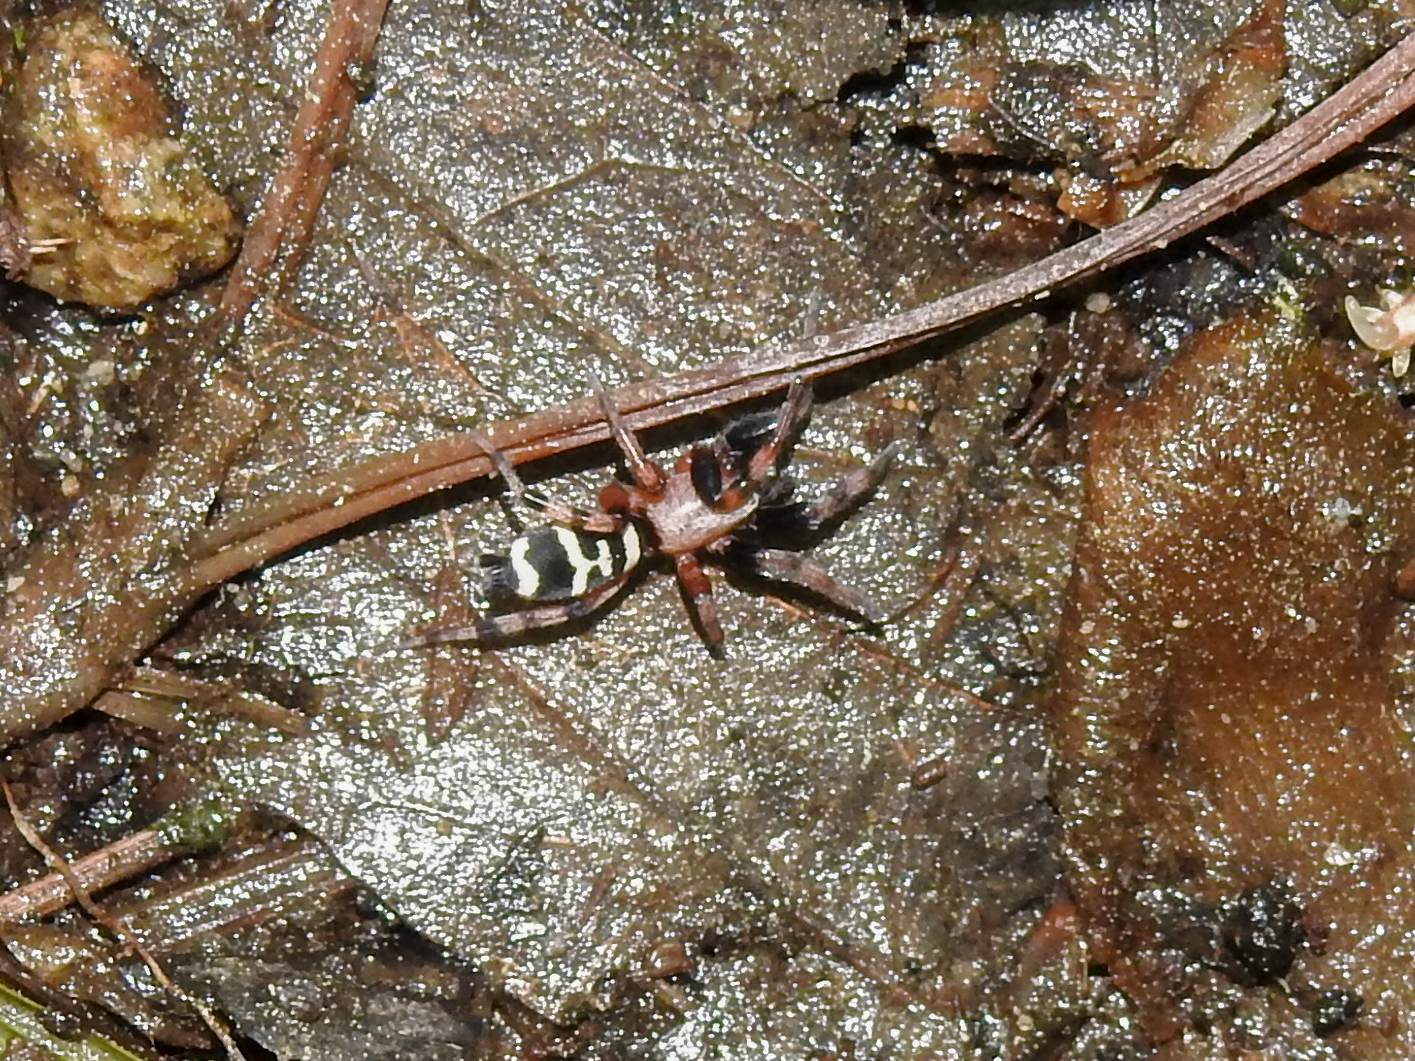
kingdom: Animalia
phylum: Arthropoda
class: Arachnida
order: Araneae
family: Gnaphosidae
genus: Sergiolus
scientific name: Sergiolus capulatus
